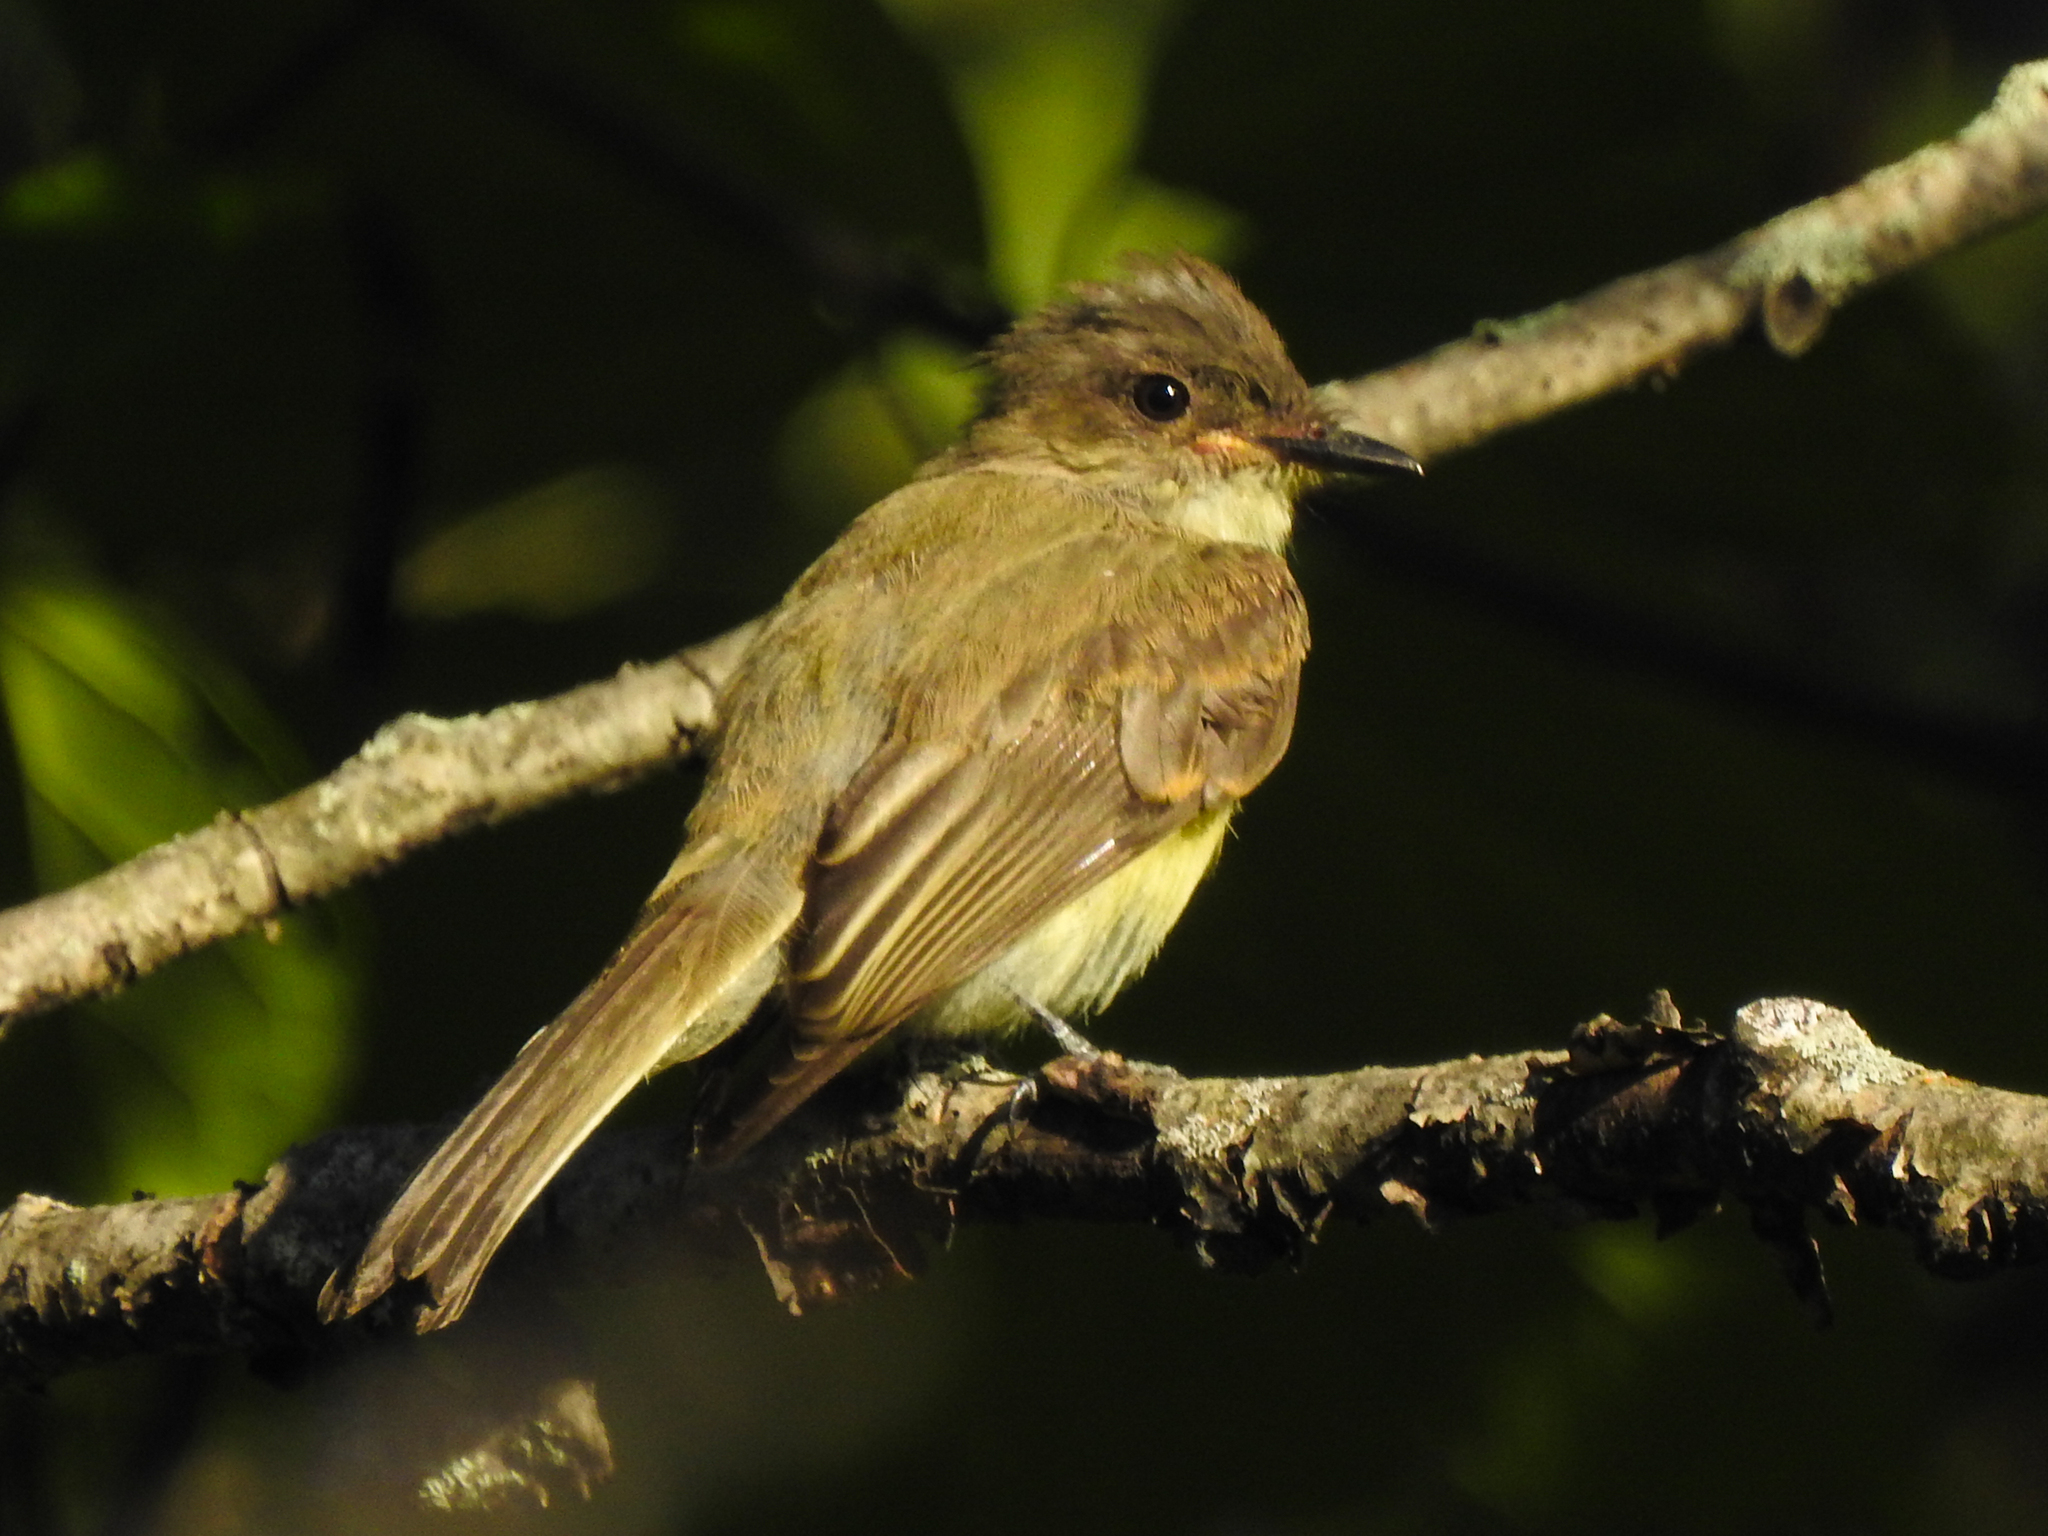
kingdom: Animalia
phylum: Chordata
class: Aves
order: Passeriformes
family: Tyrannidae
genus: Sayornis
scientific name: Sayornis phoebe
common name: Eastern phoebe
